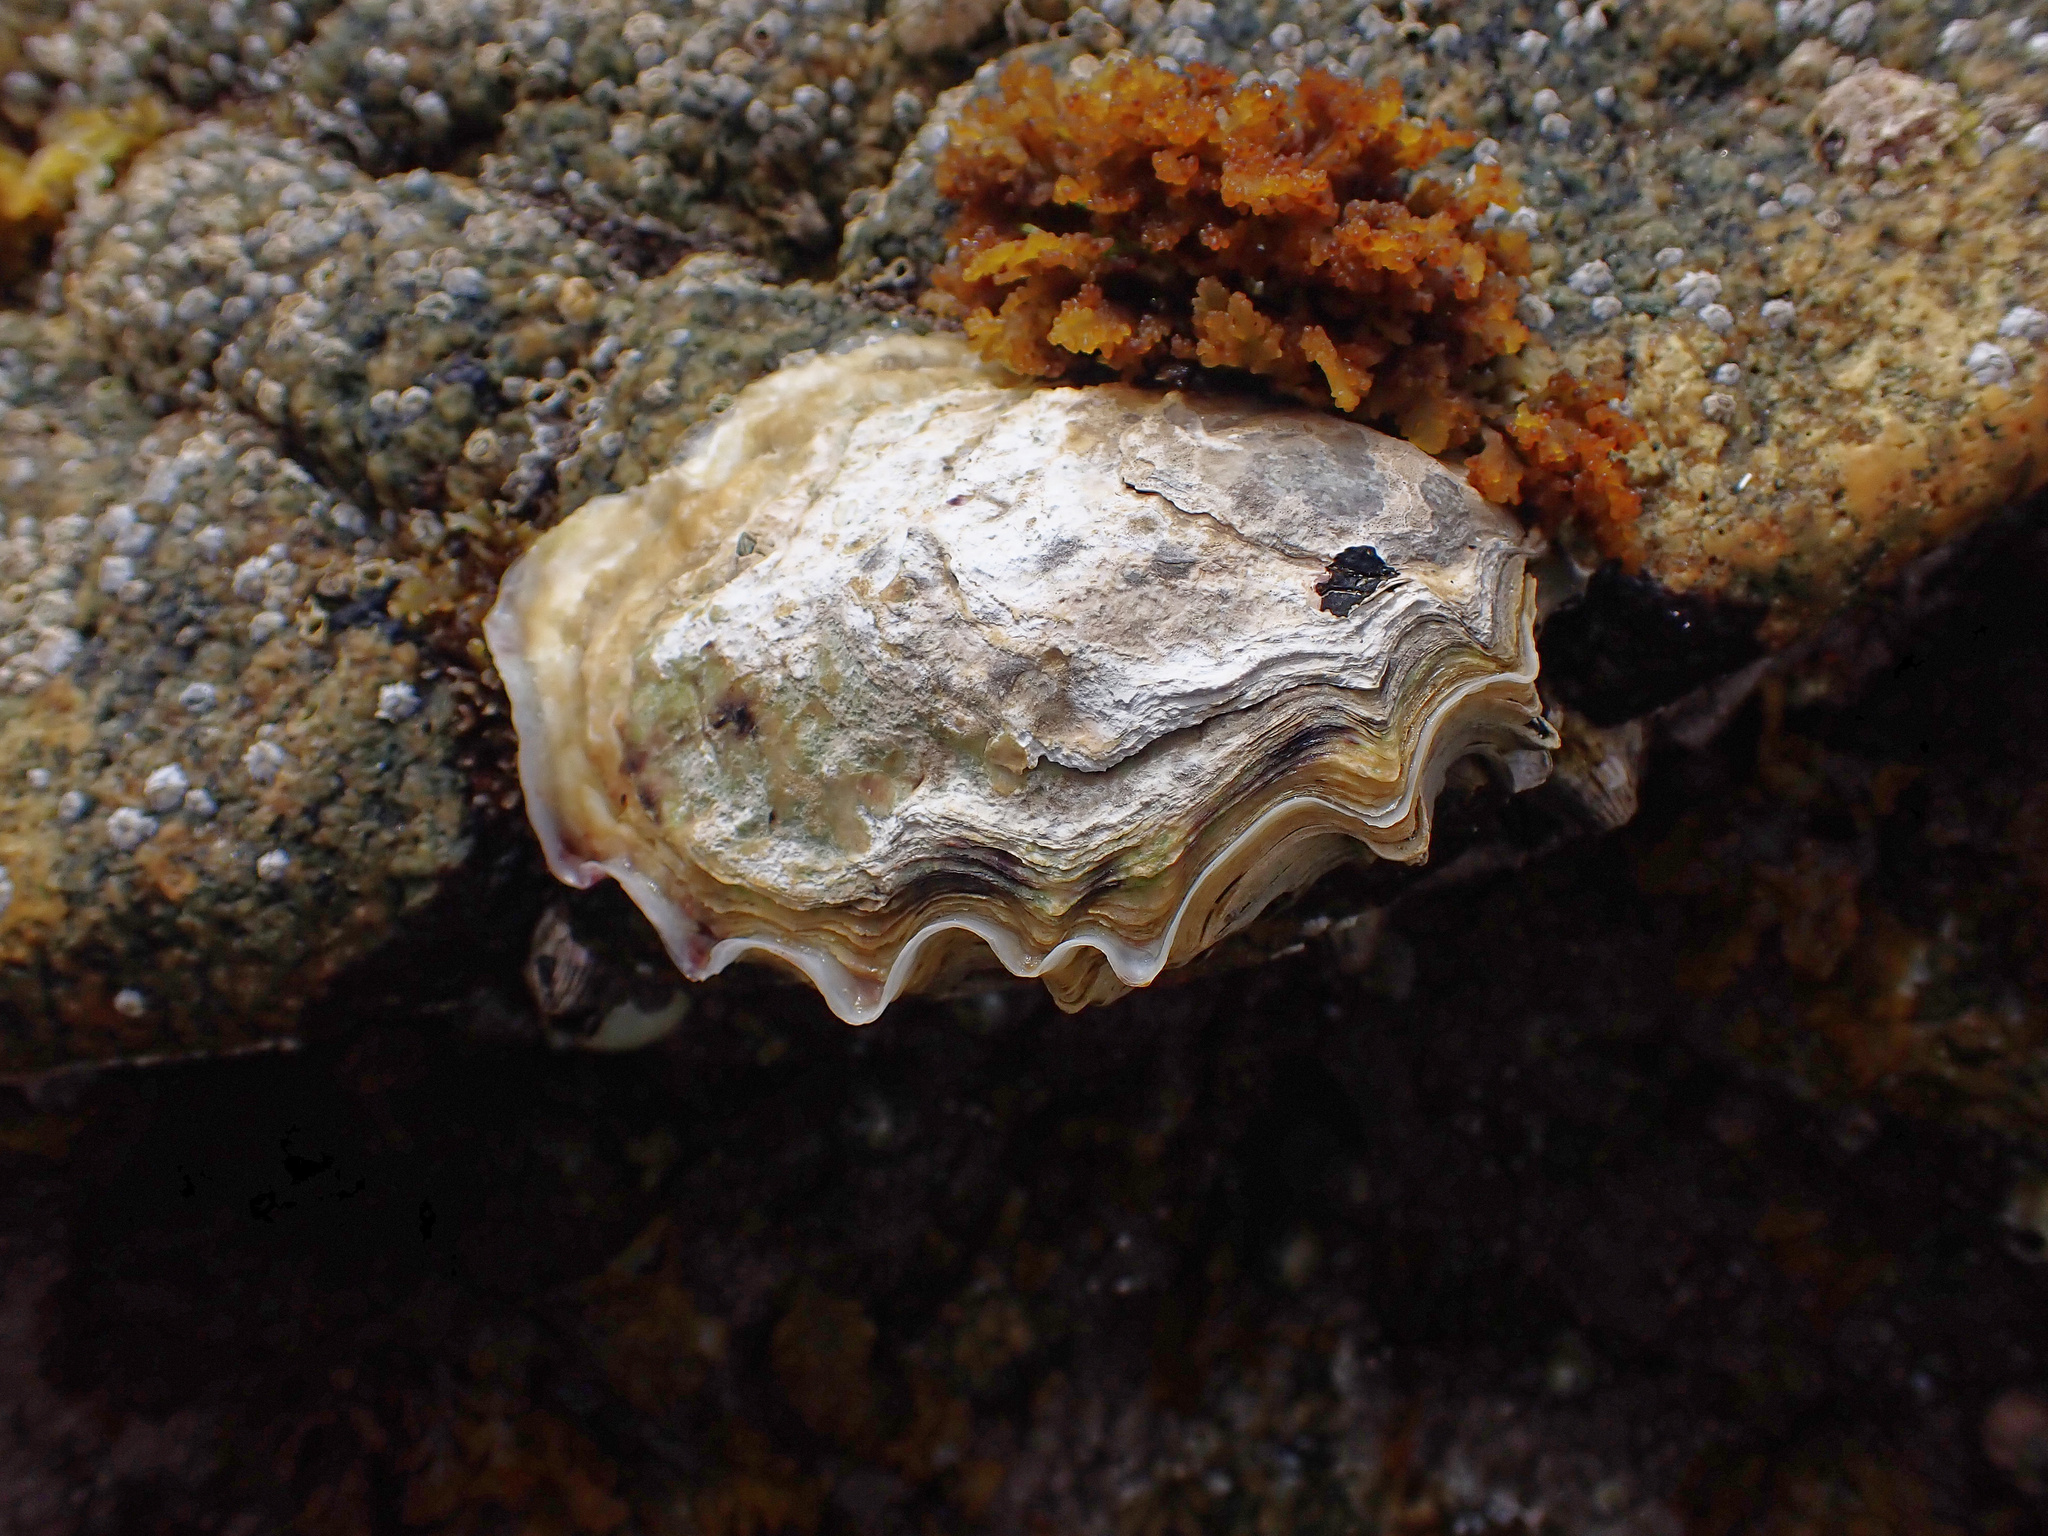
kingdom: Animalia
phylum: Mollusca
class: Bivalvia
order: Ostreida
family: Ostreidae
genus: Magallana
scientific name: Magallana gigas
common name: Pacific oyster
